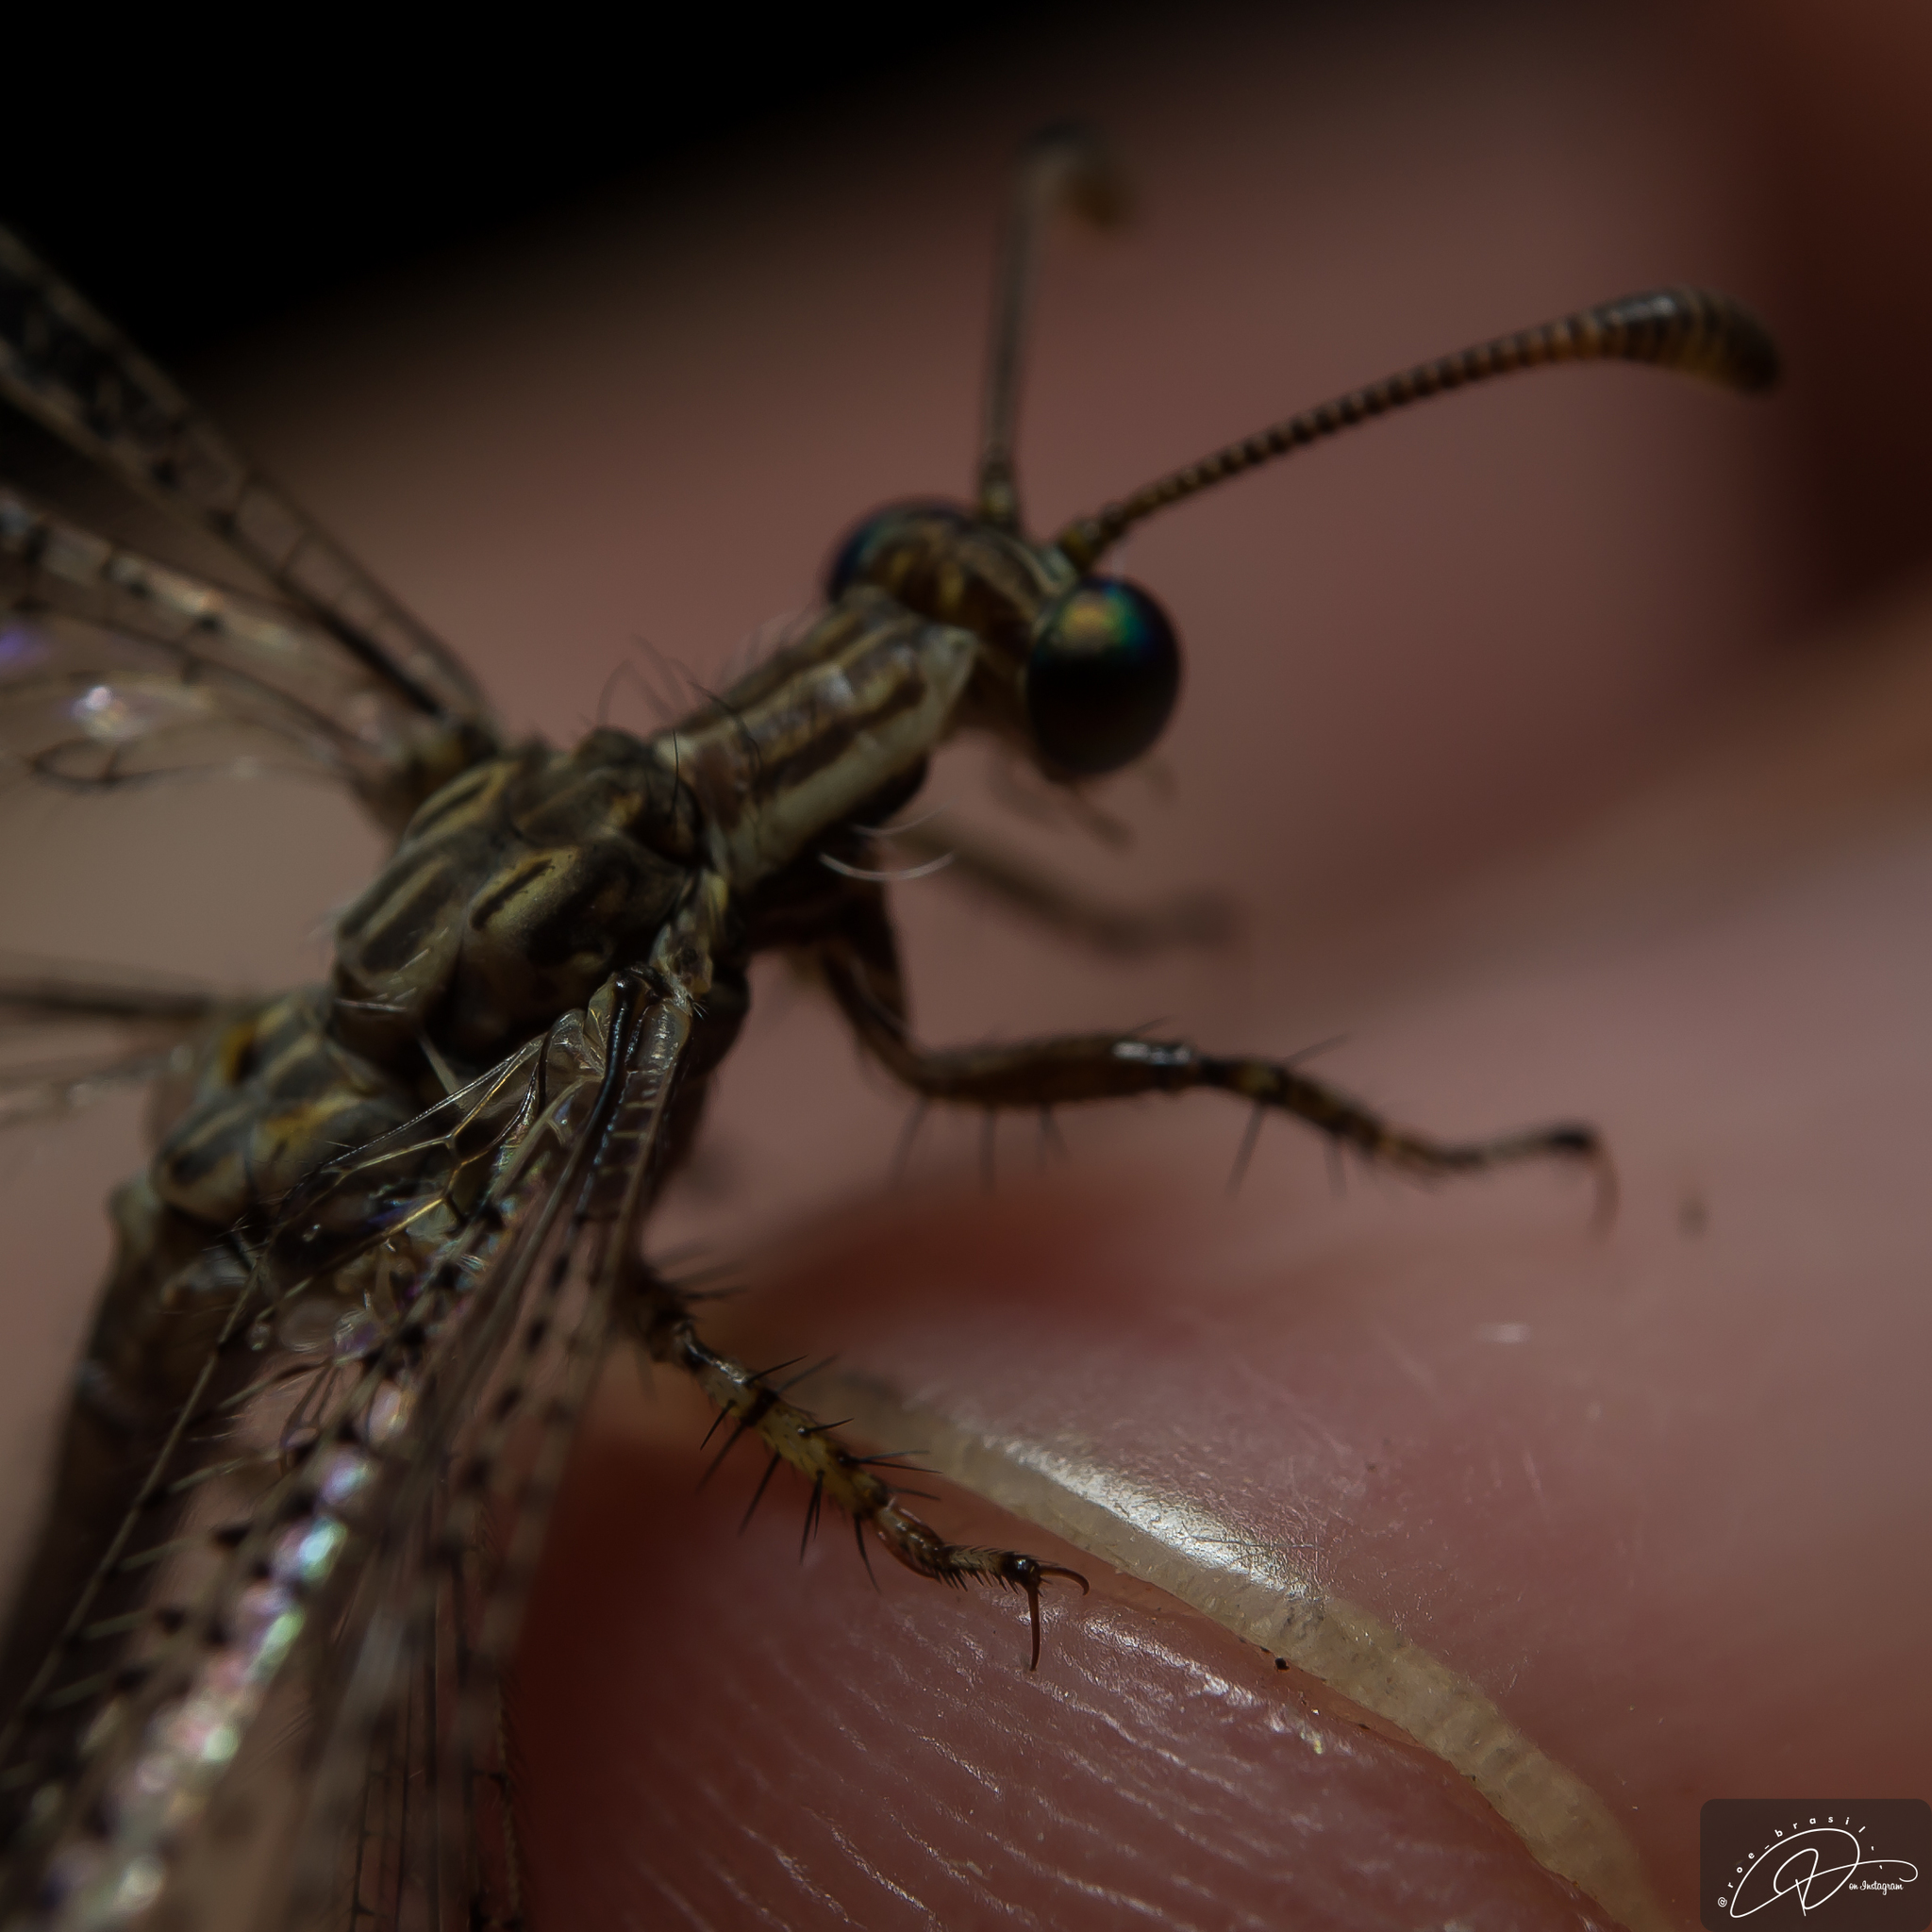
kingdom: Animalia
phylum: Arthropoda
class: Insecta
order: Neuroptera
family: Myrmeleontidae
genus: Argentoleon
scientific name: Argentoleon irrigatus
